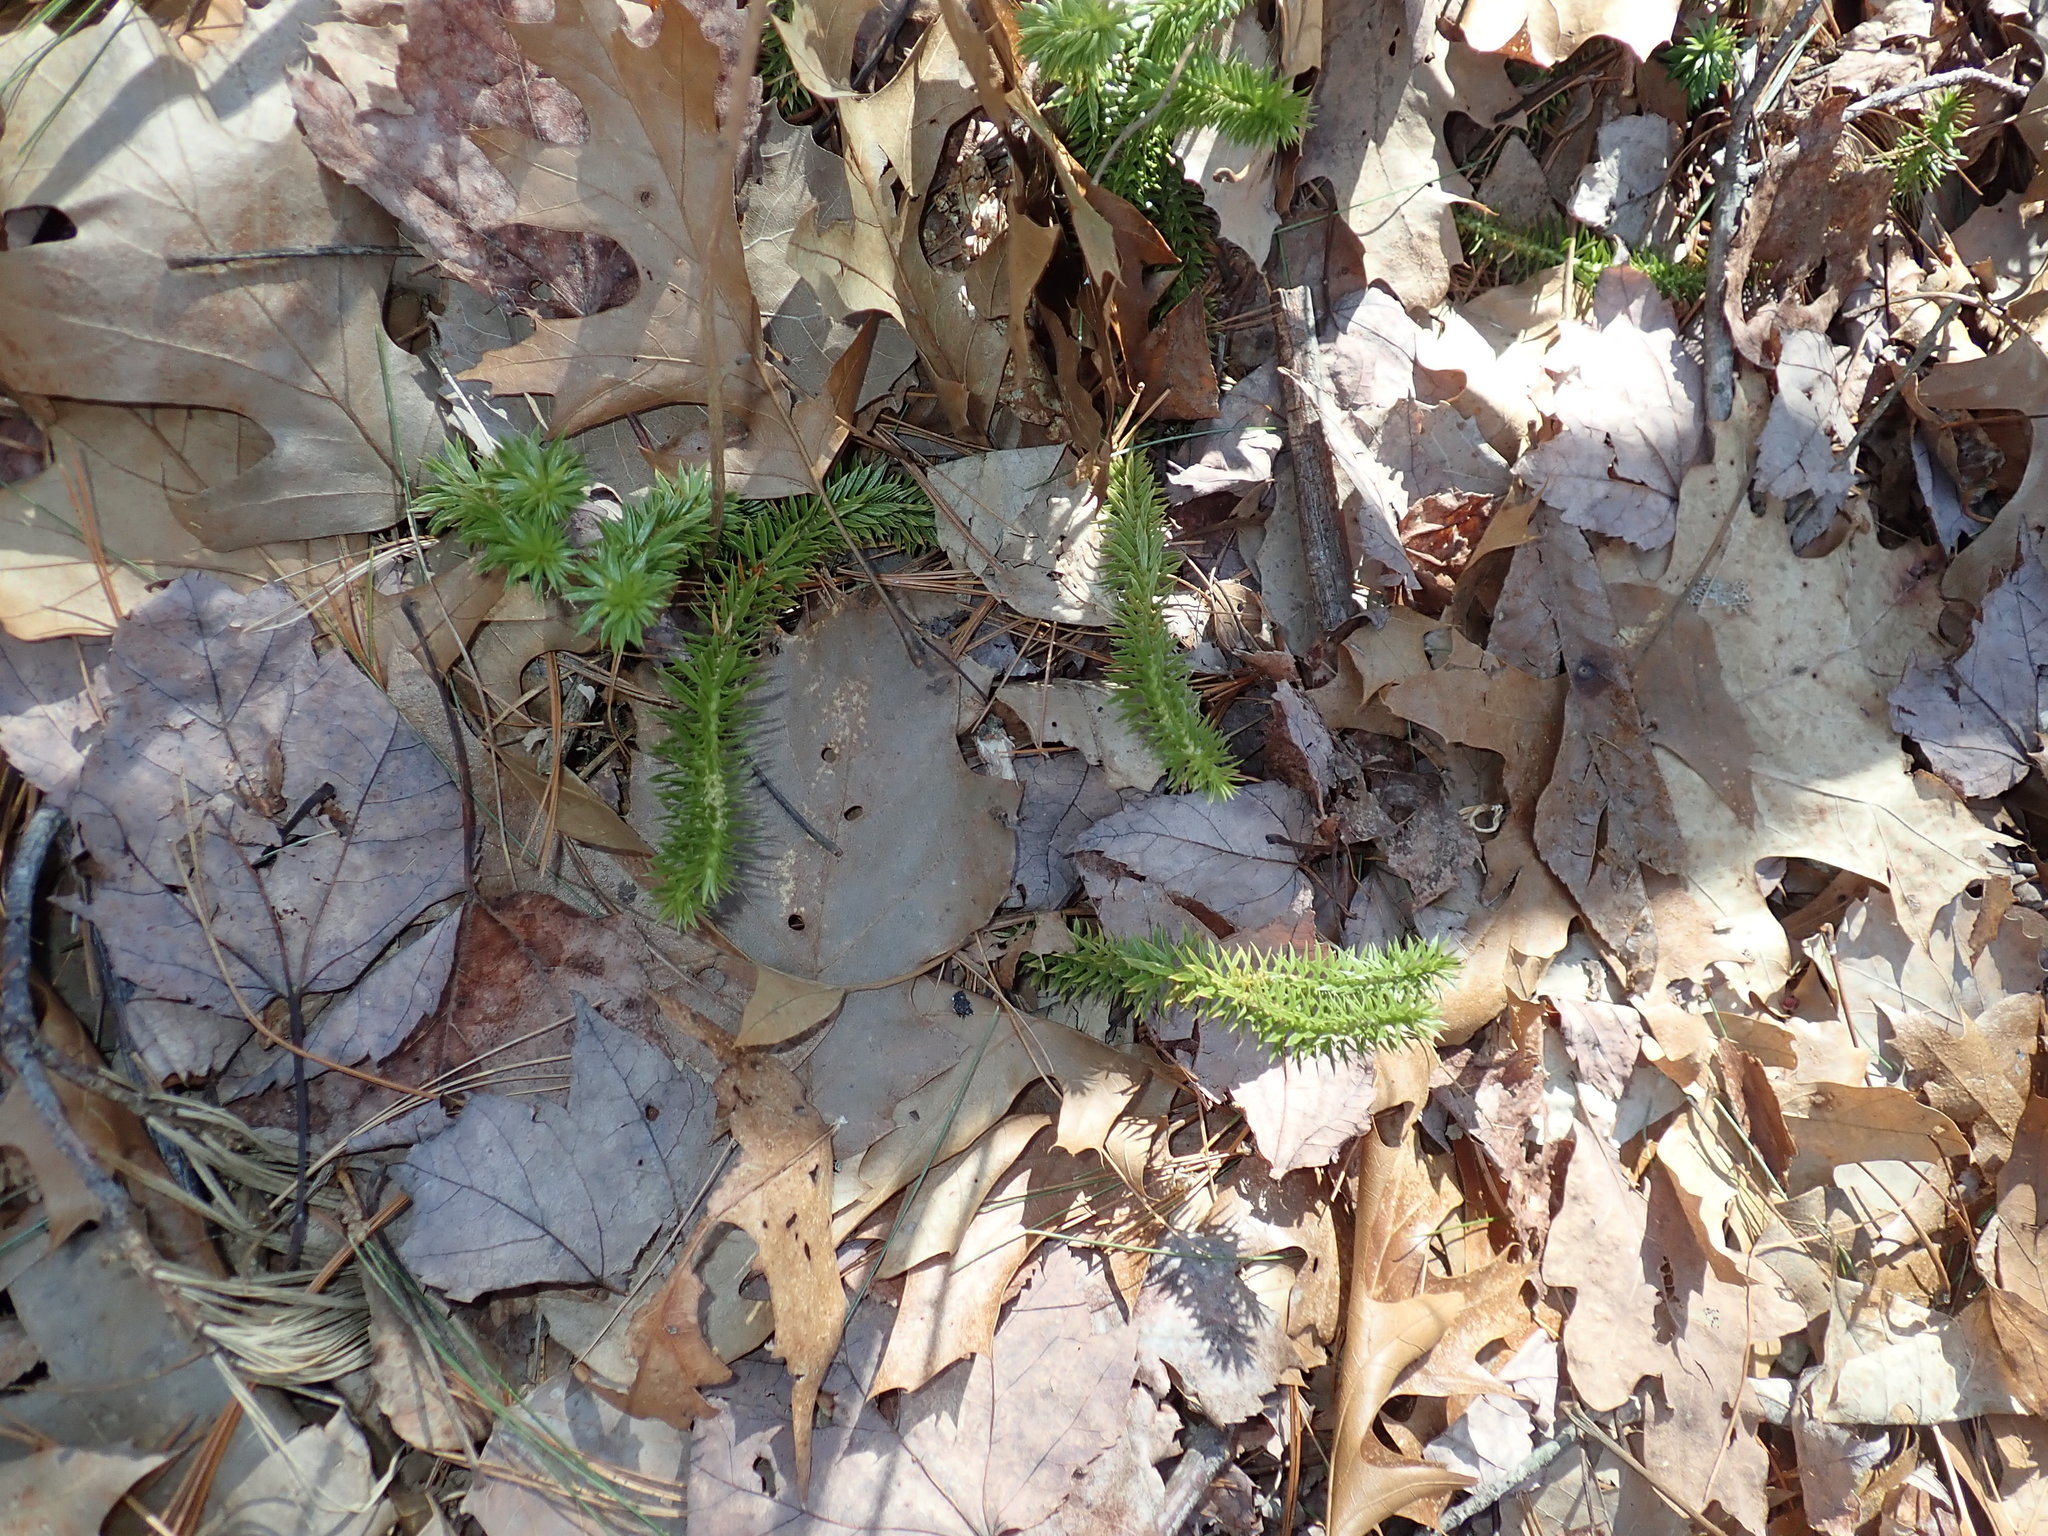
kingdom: Plantae
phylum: Tracheophyta
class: Lycopodiopsida
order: Lycopodiales
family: Lycopodiaceae
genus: Huperzia
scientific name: Huperzia lucidula
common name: Shining clubmoss
